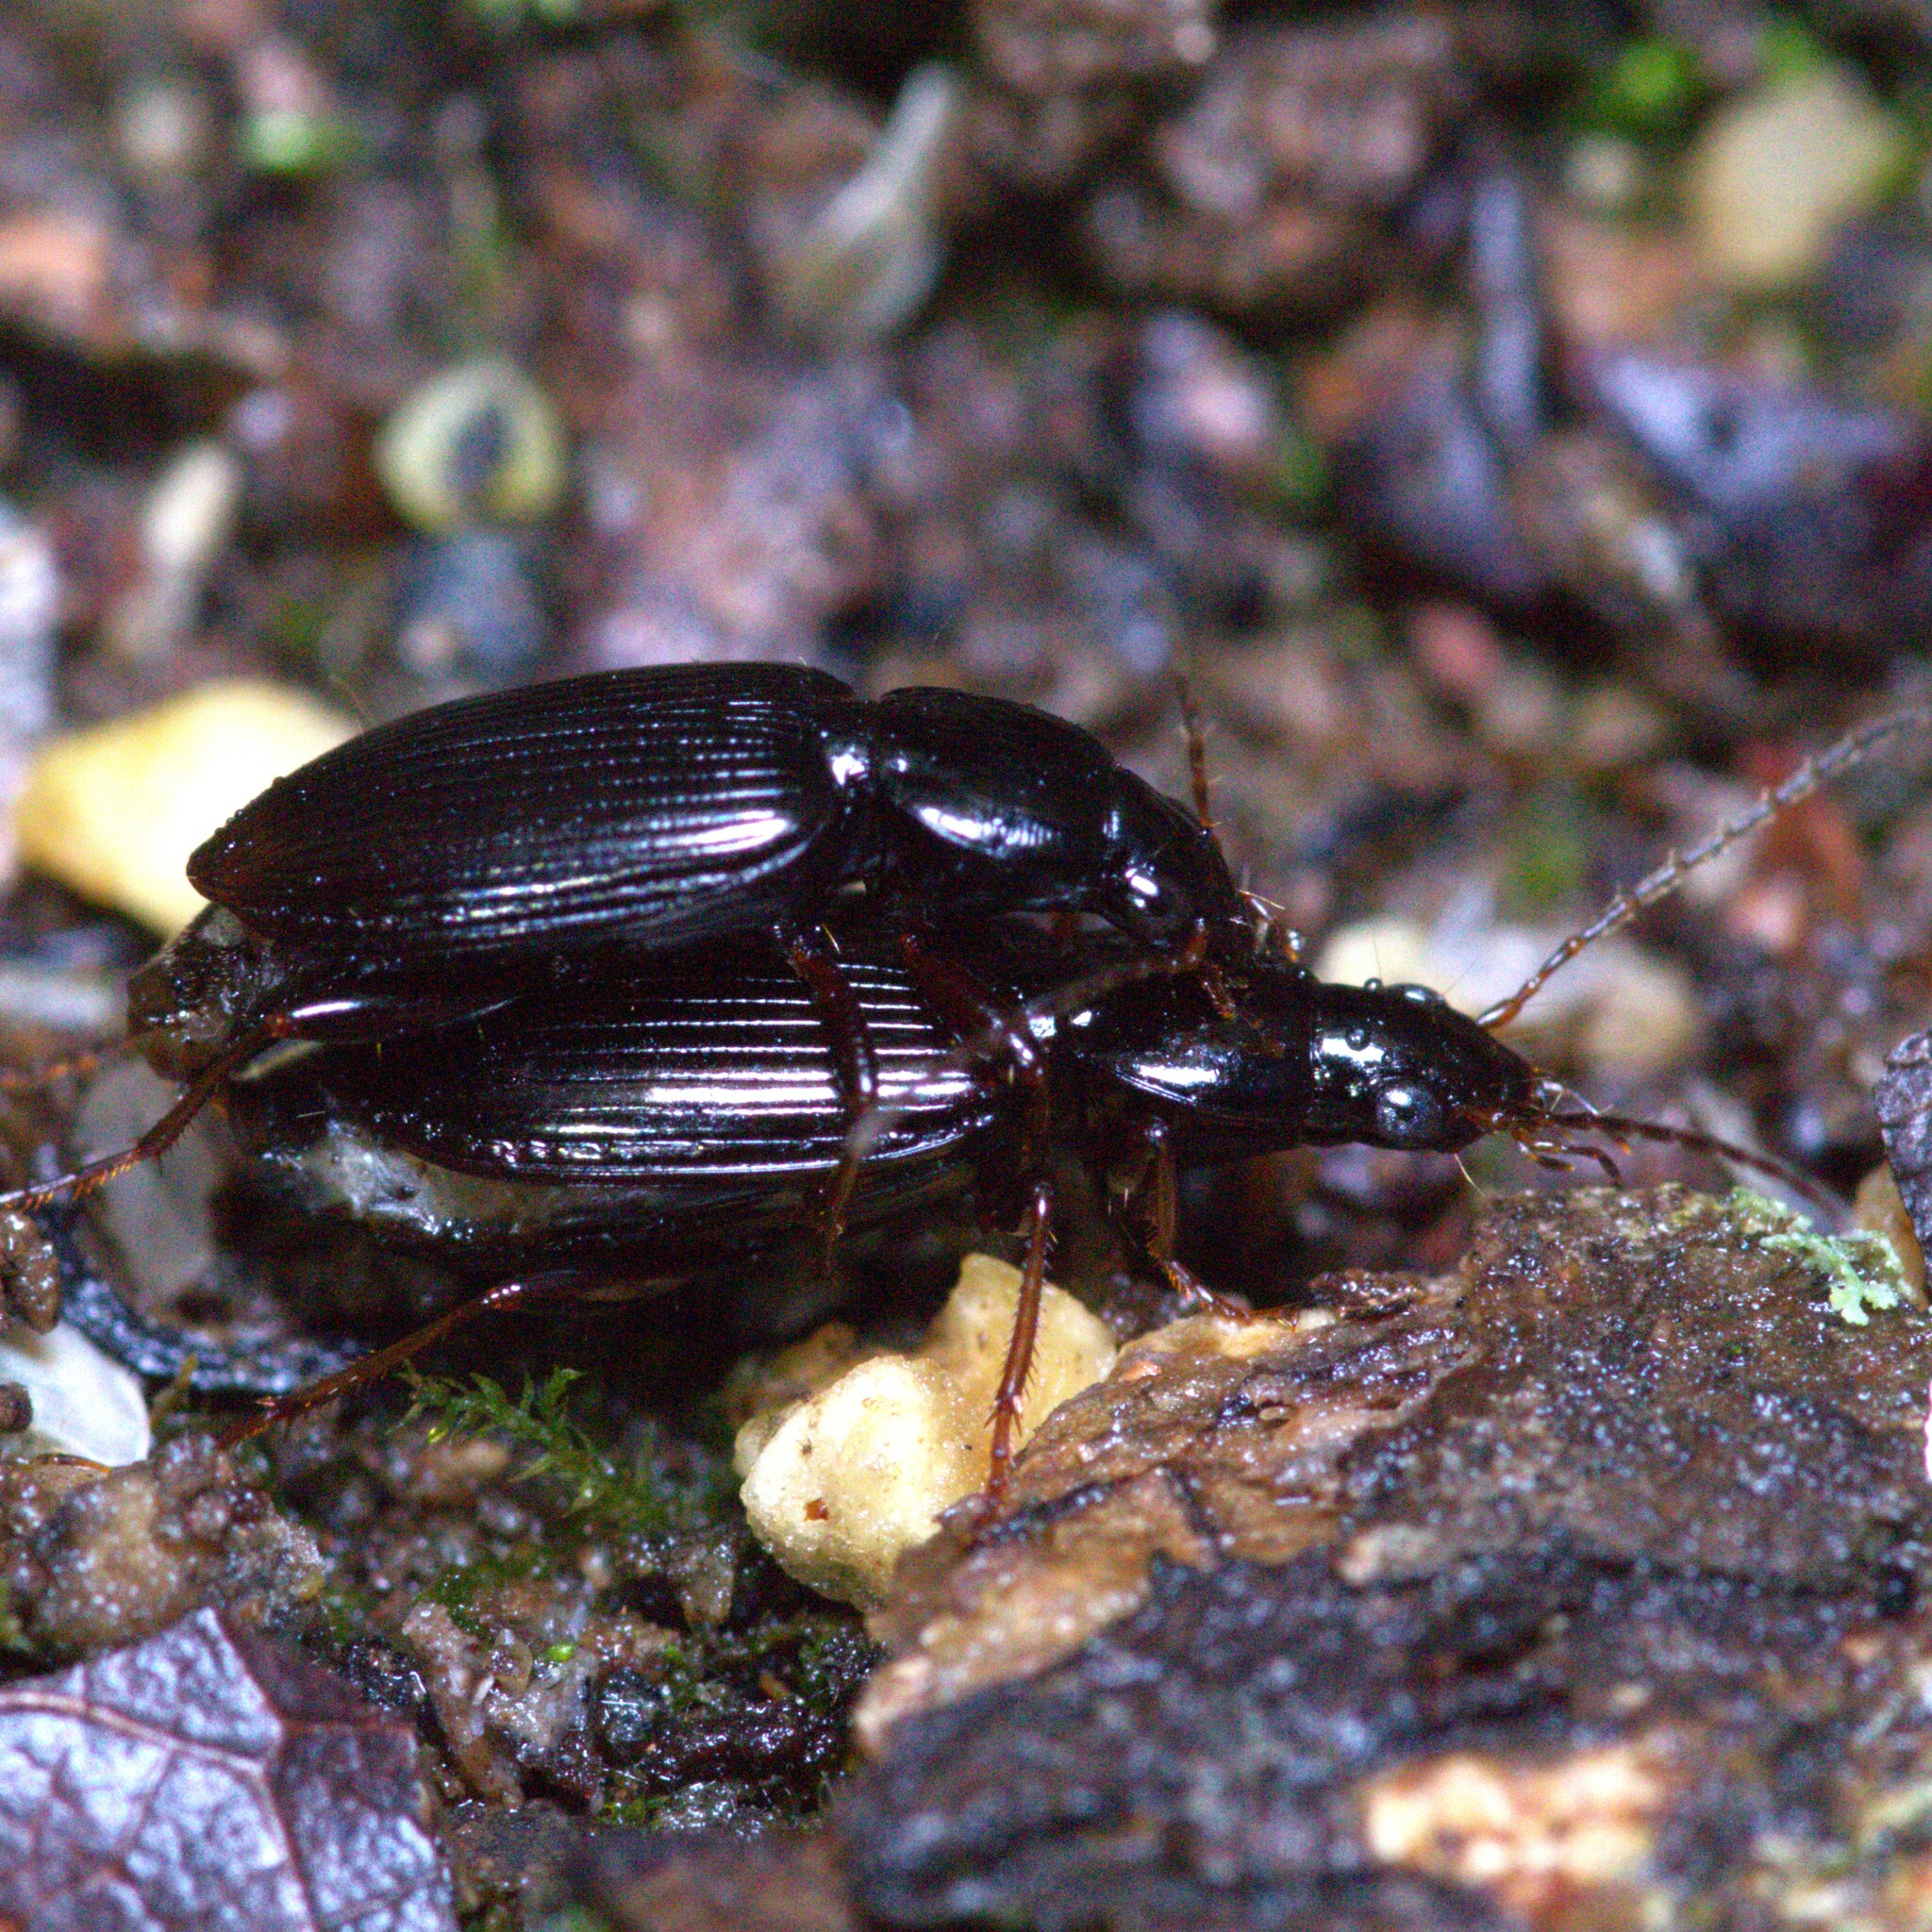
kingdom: Animalia
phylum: Arthropoda
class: Insecta
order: Coleoptera
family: Carabidae
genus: Agonum
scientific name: Agonum punctiforme
